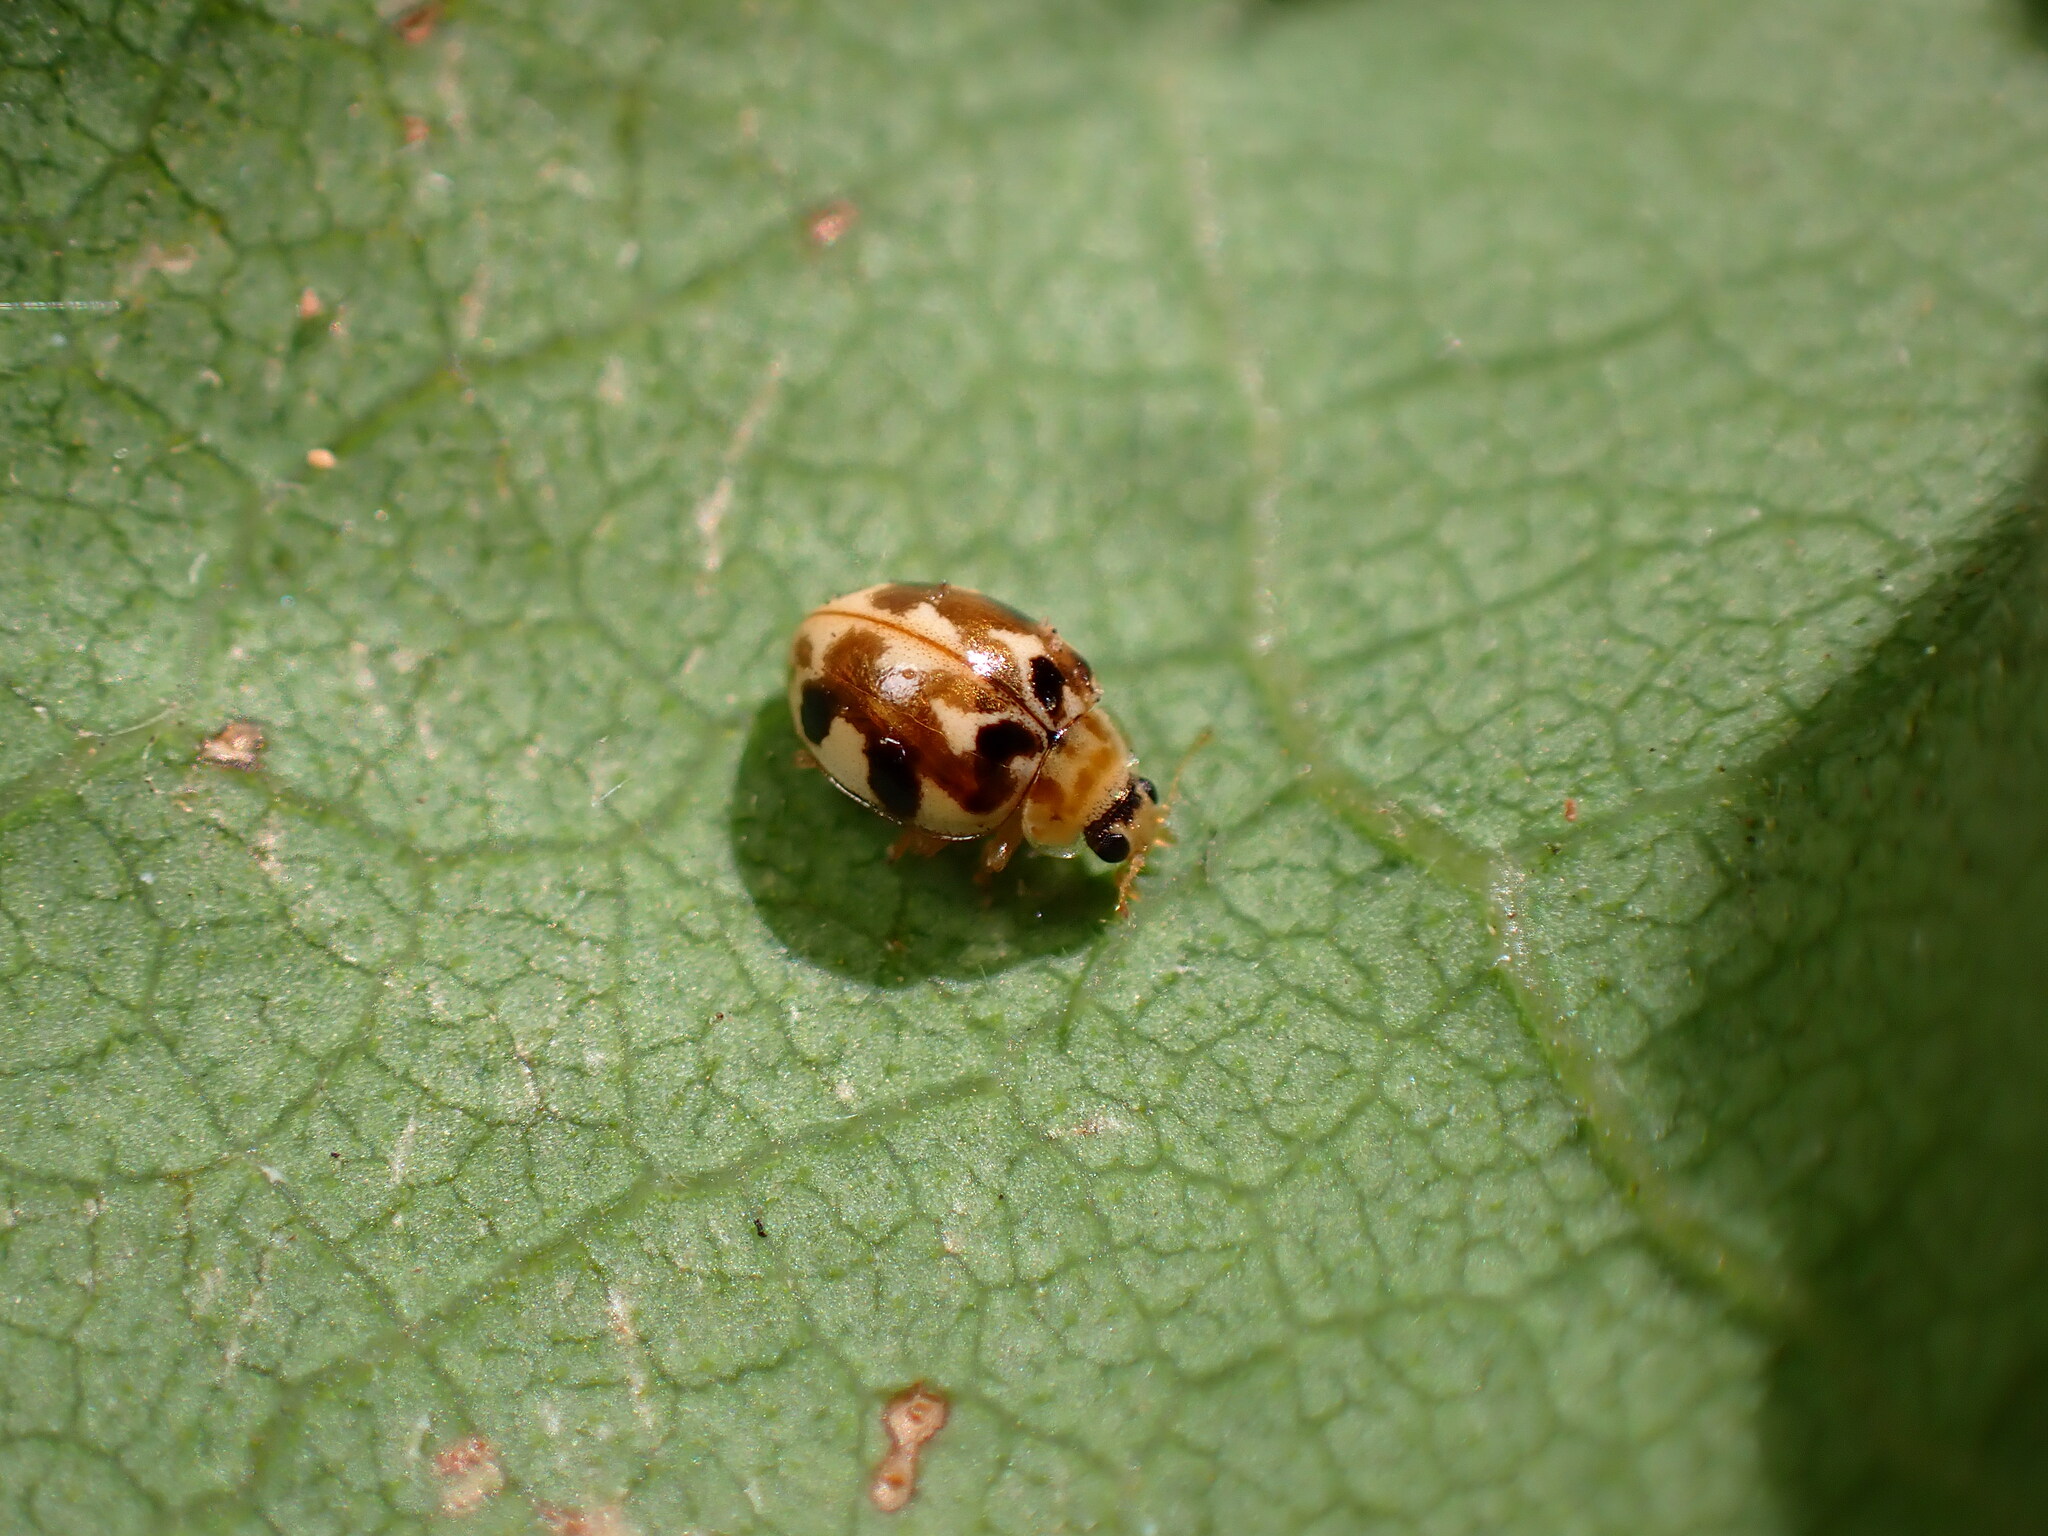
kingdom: Animalia
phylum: Arthropoda
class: Insecta
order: Coleoptera
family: Coccinellidae
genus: Psyllobora
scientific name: Psyllobora vigintimaculata
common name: Ladybird beetle
